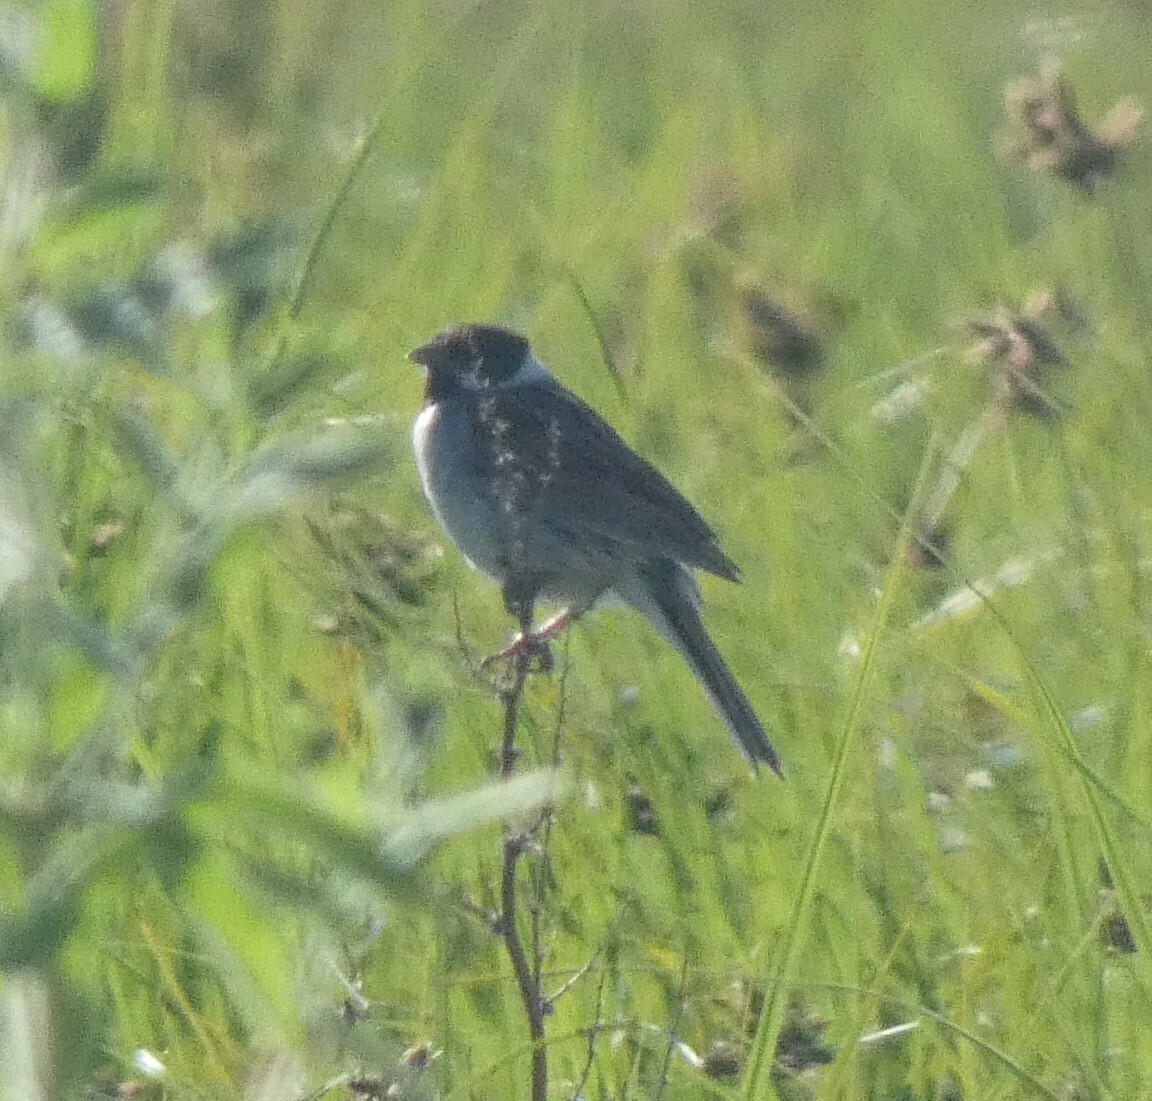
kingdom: Animalia
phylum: Chordata
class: Aves
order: Passeriformes
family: Emberizidae
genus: Emberiza
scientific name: Emberiza schoeniclus
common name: Reed bunting
